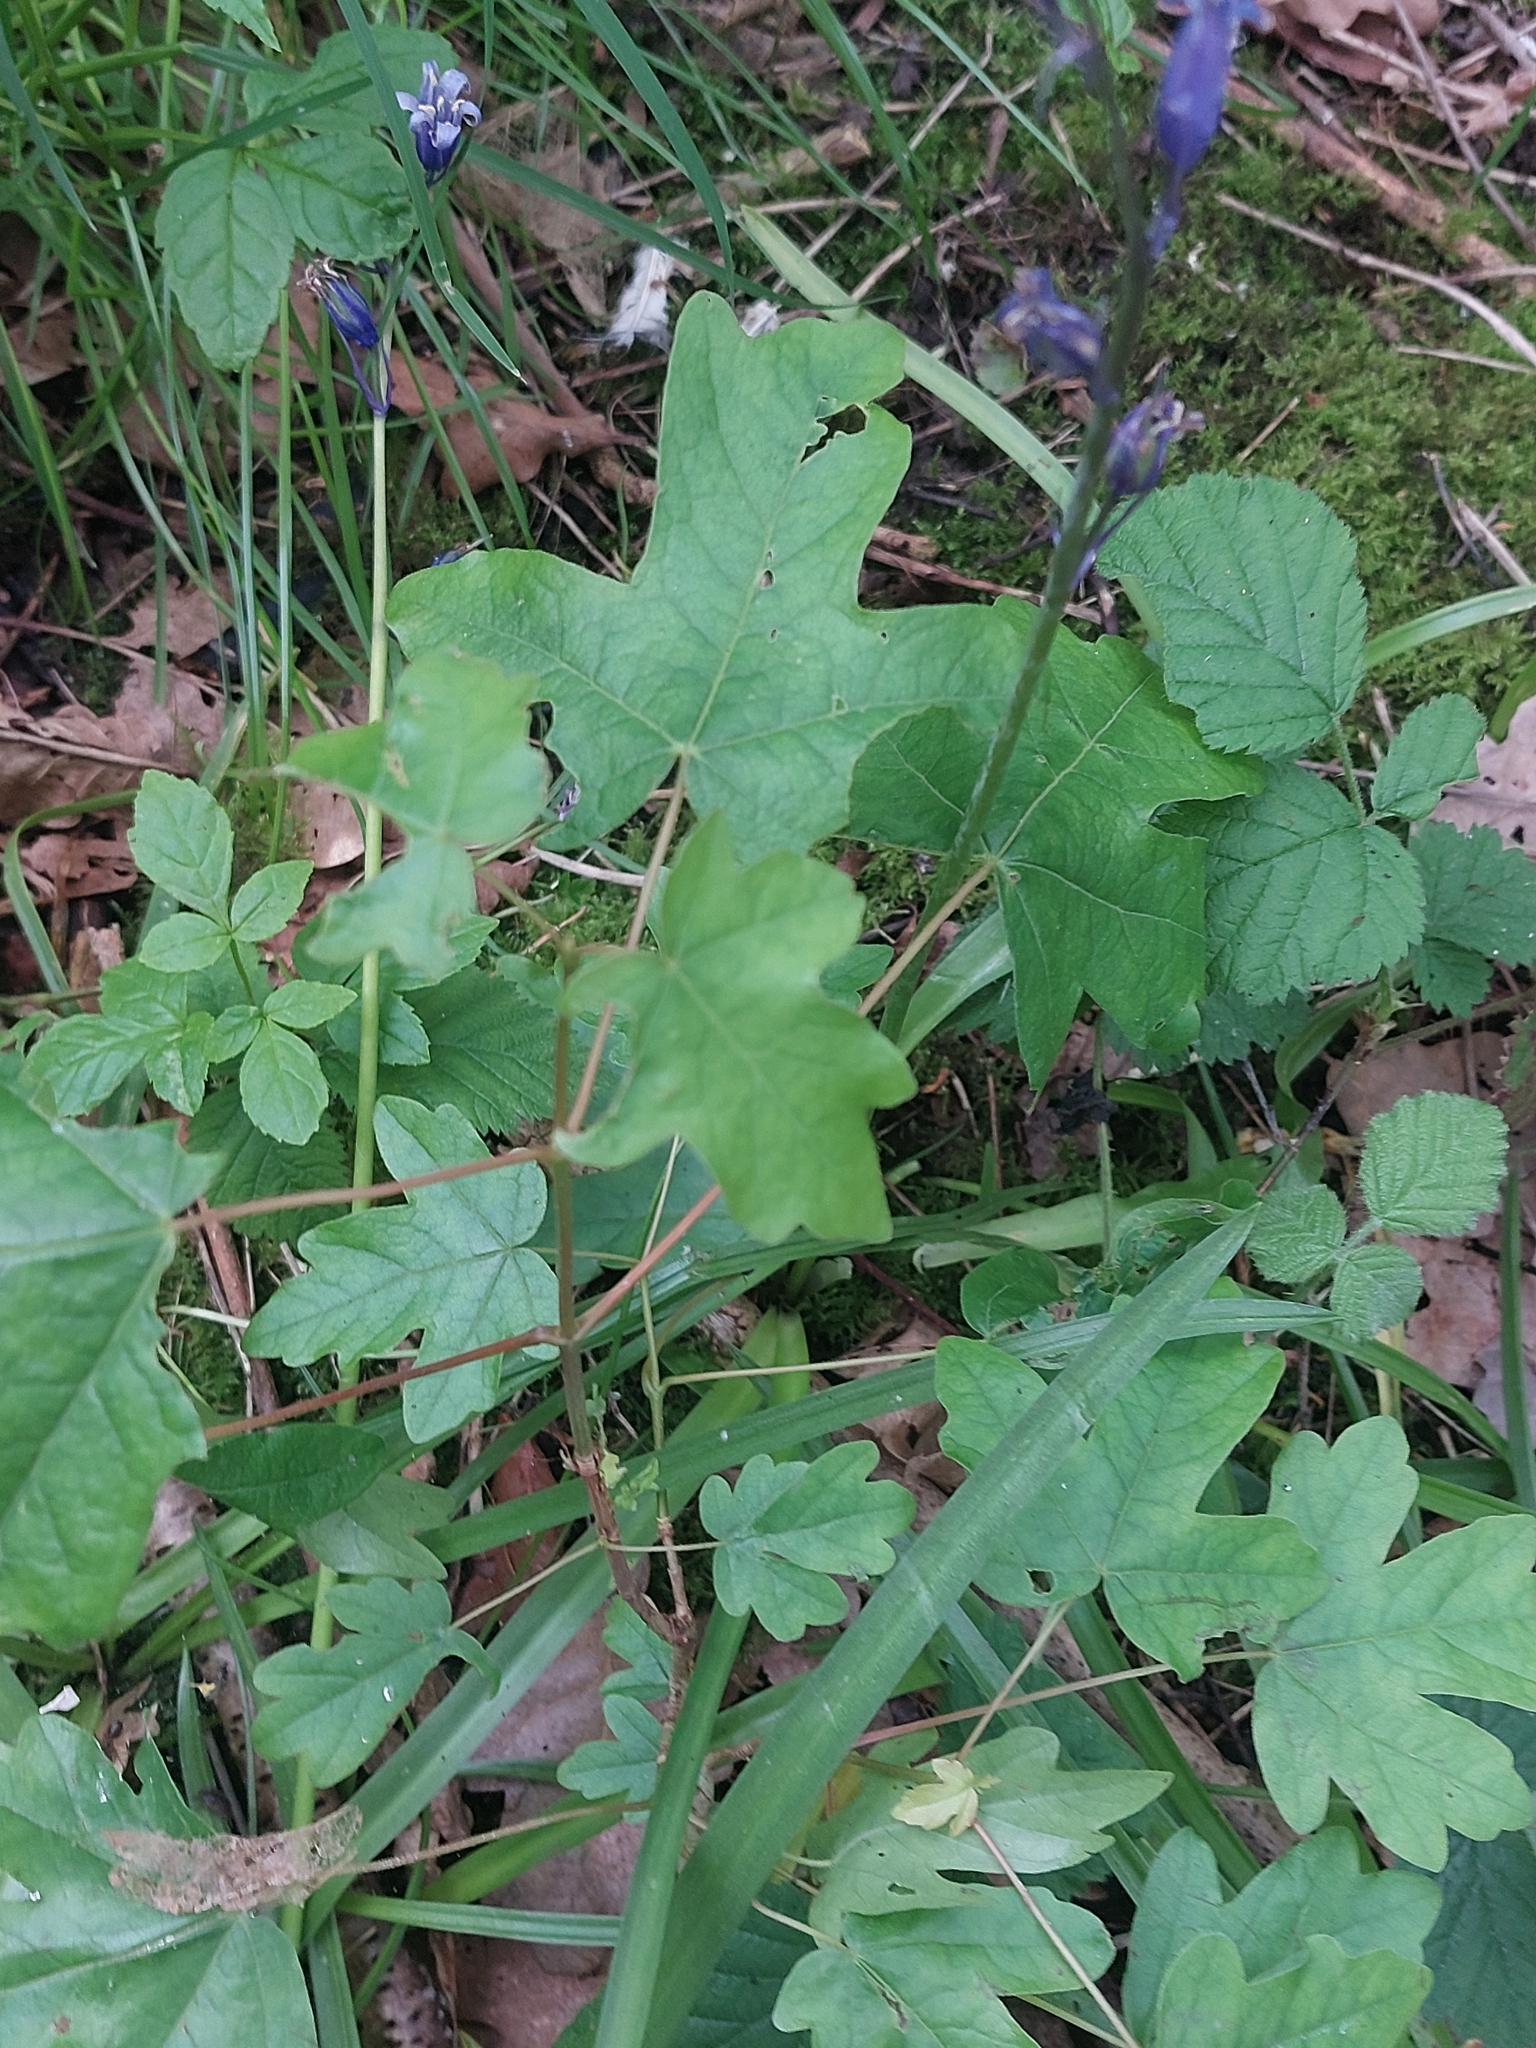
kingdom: Plantae
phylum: Tracheophyta
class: Magnoliopsida
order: Sapindales
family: Sapindaceae
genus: Acer
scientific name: Acer campestre
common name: Field maple
